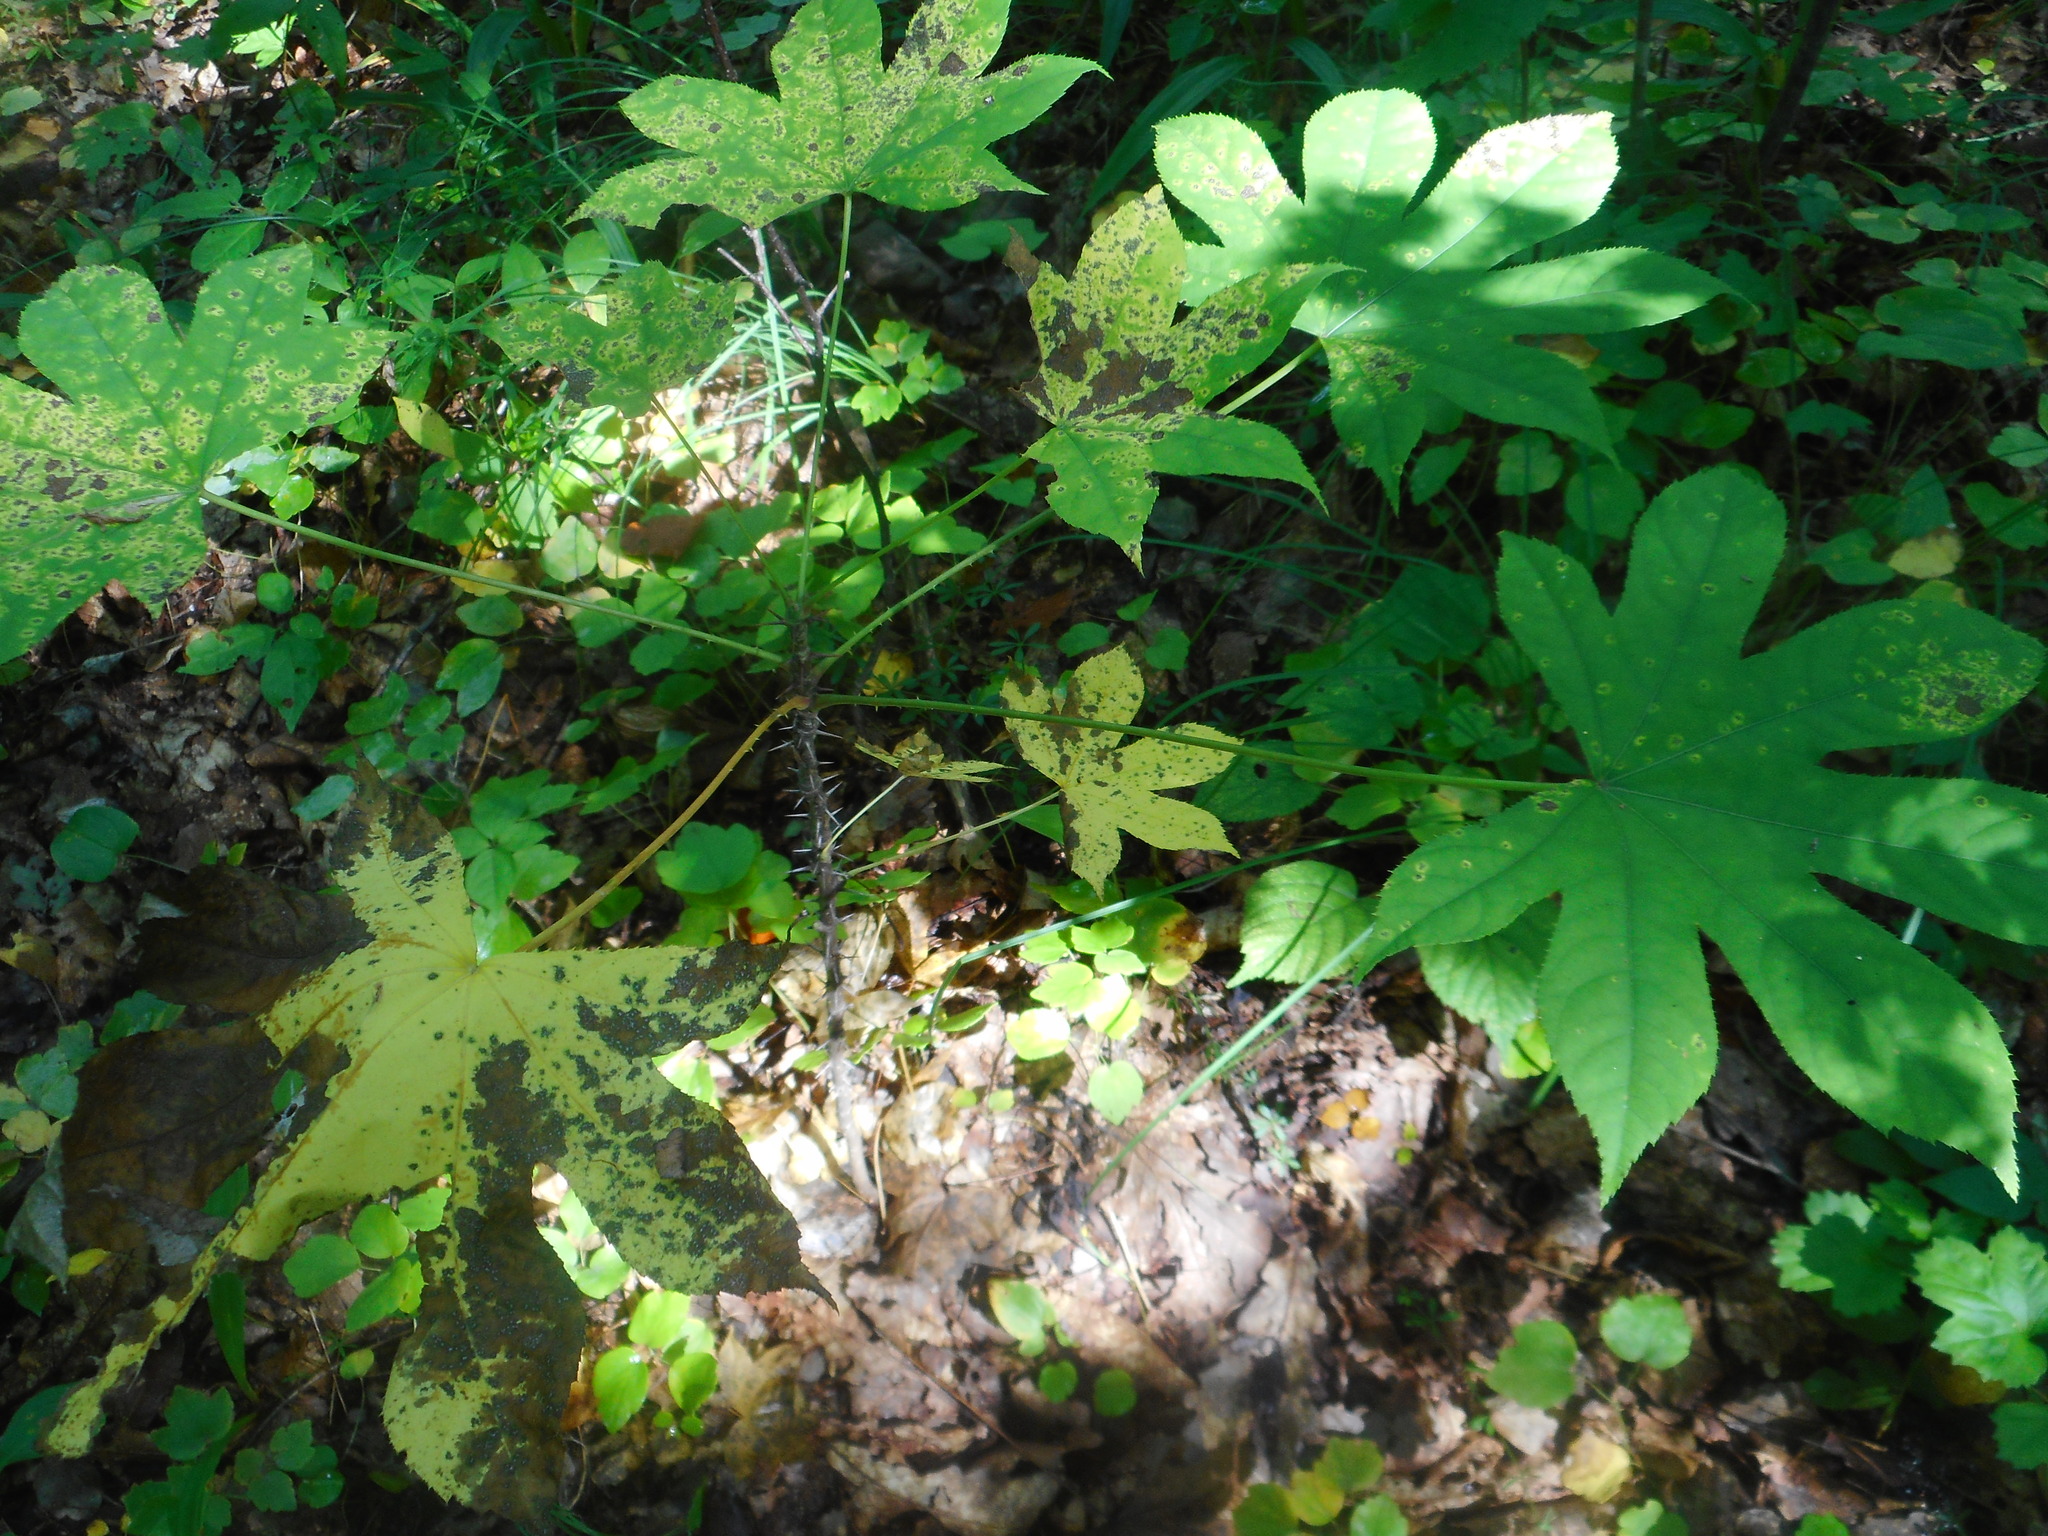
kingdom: Plantae
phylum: Tracheophyta
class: Magnoliopsida
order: Apiales
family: Araliaceae
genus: Kalopanax
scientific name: Kalopanax septemlobus
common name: Castor aralia
